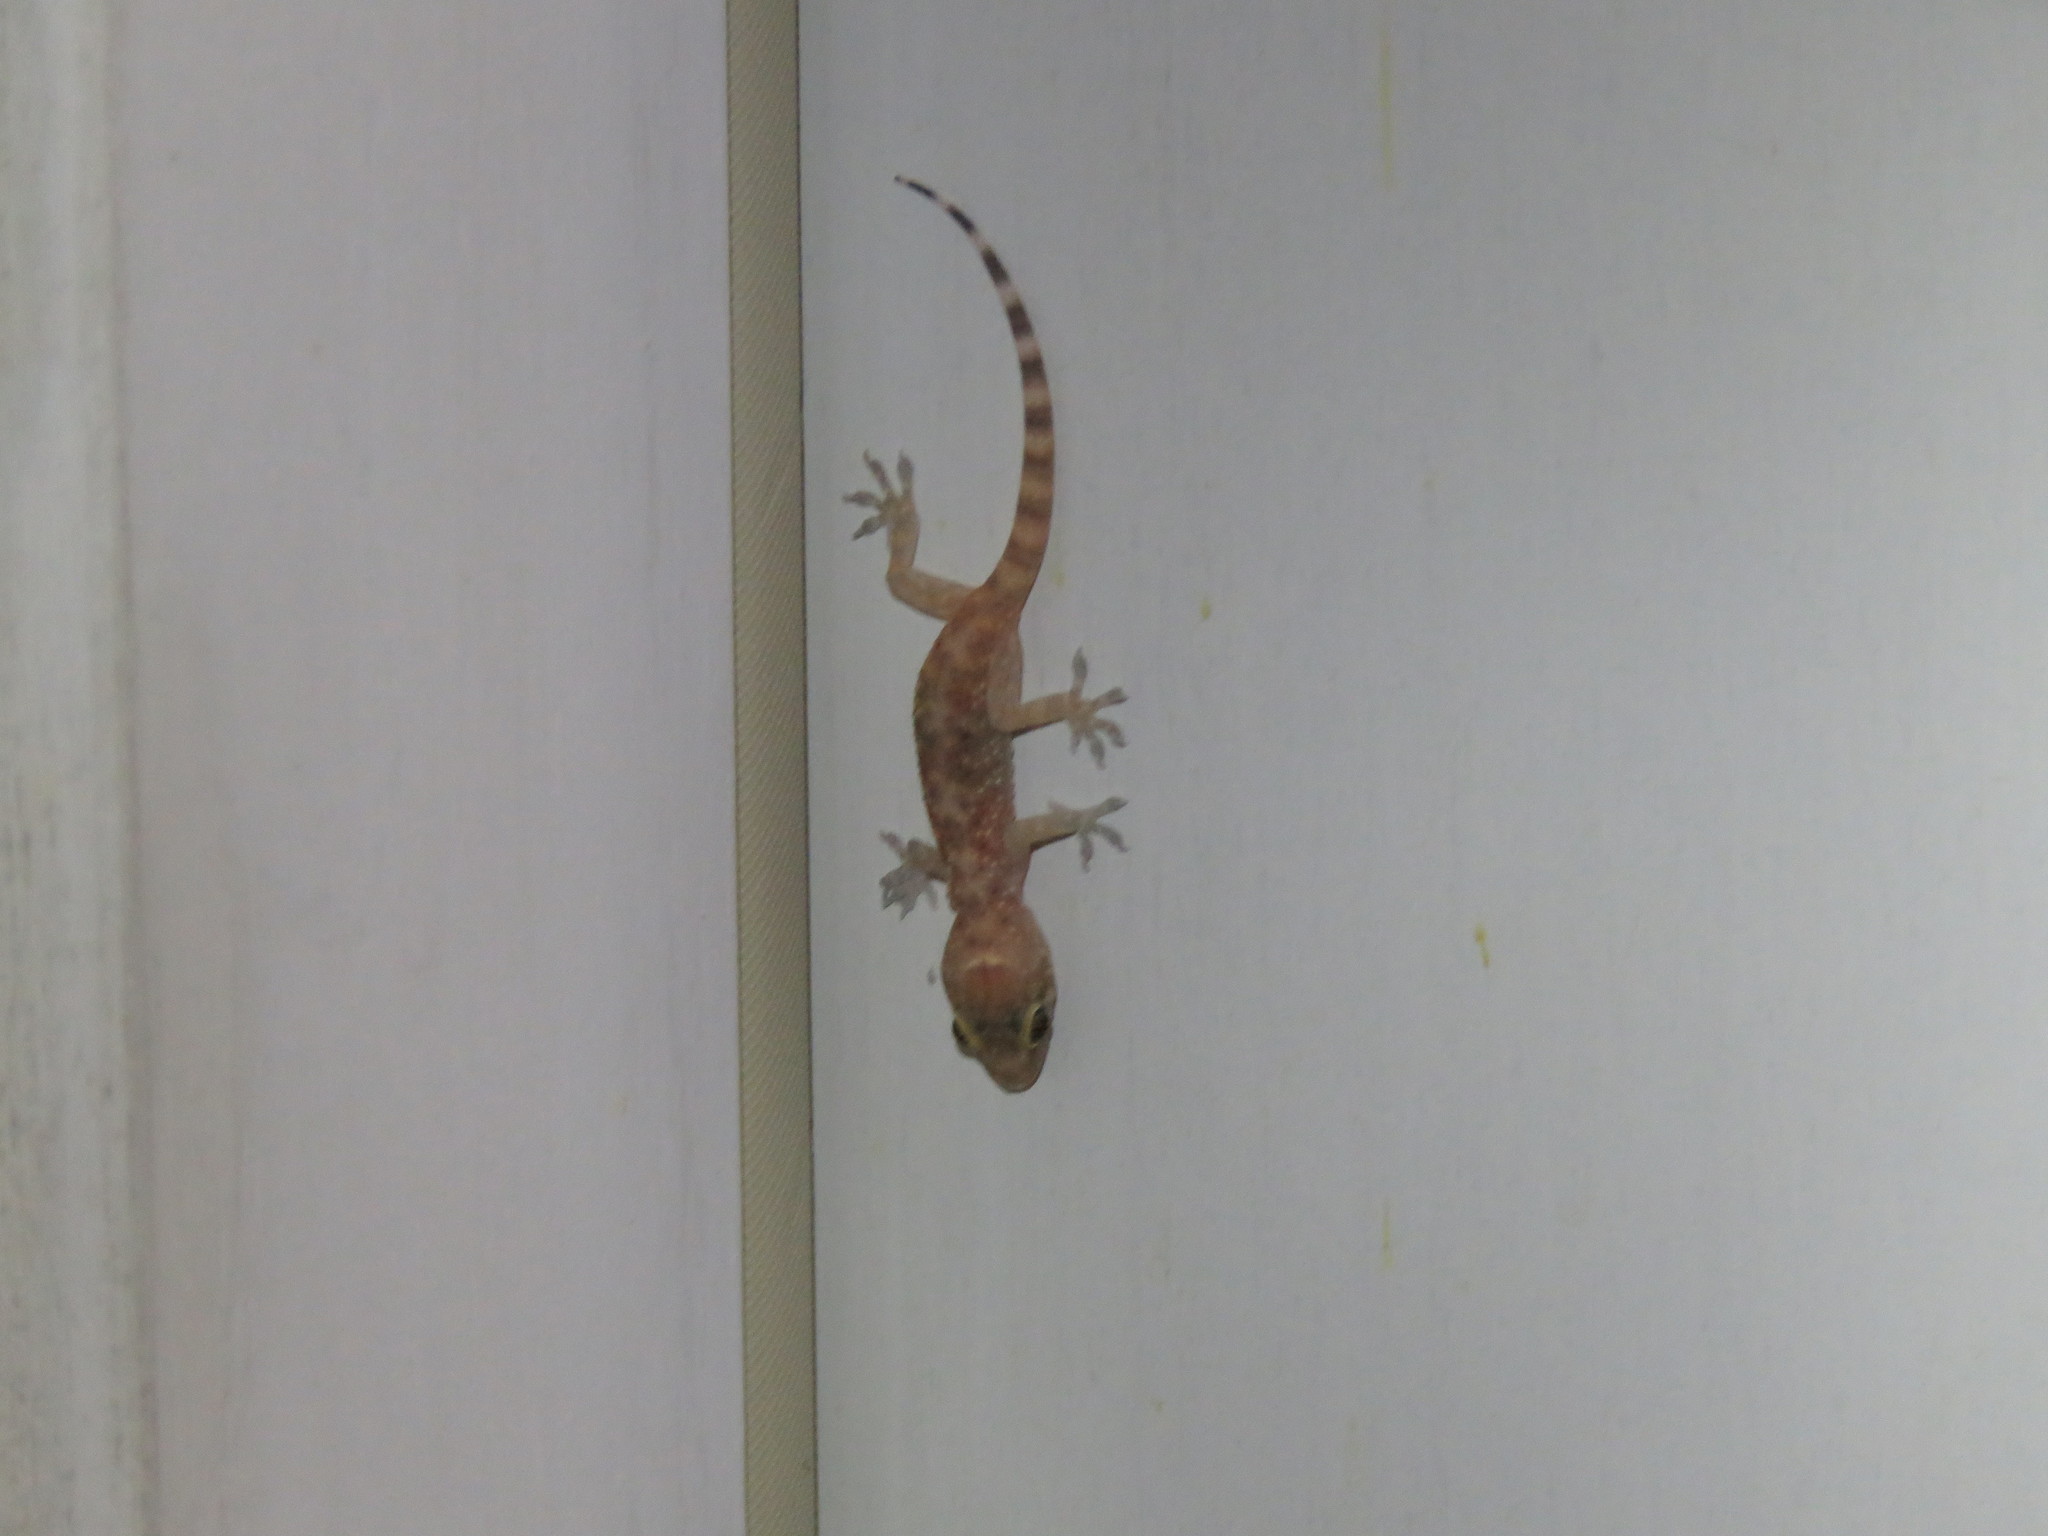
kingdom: Animalia
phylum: Chordata
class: Squamata
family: Gekkonidae
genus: Hemidactylus
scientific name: Hemidactylus turcicus
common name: Turkish gecko
